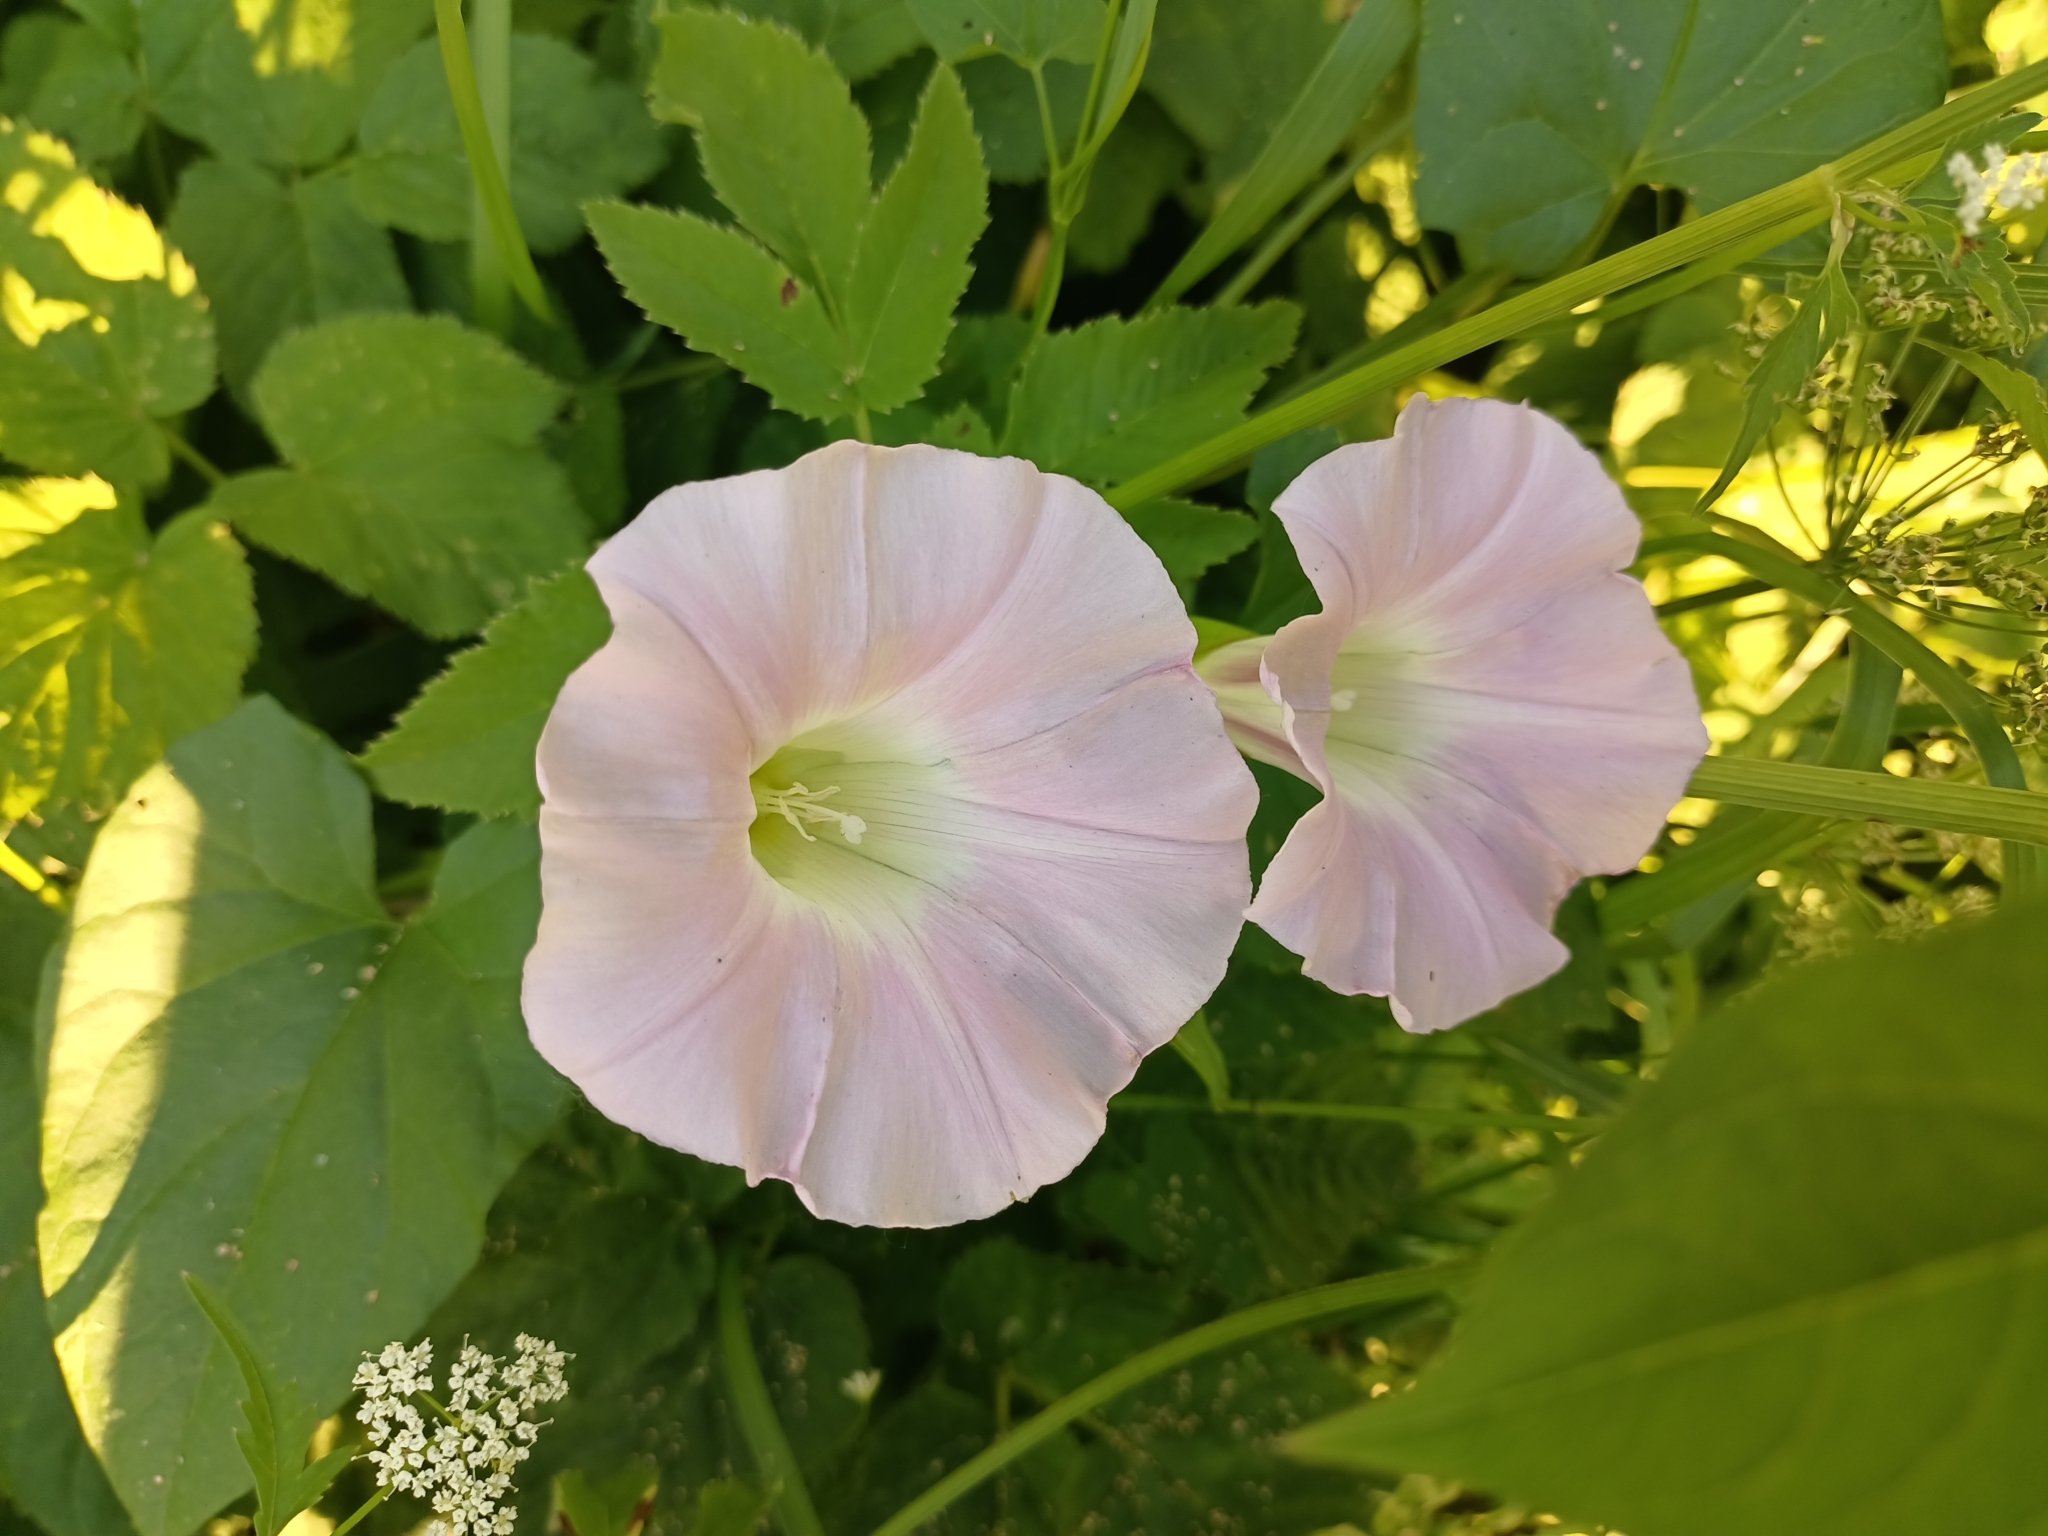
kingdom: Plantae
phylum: Tracheophyta
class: Magnoliopsida
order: Solanales
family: Convolvulaceae
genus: Calystegia
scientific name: Calystegia sepium
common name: Hedge bindweed
